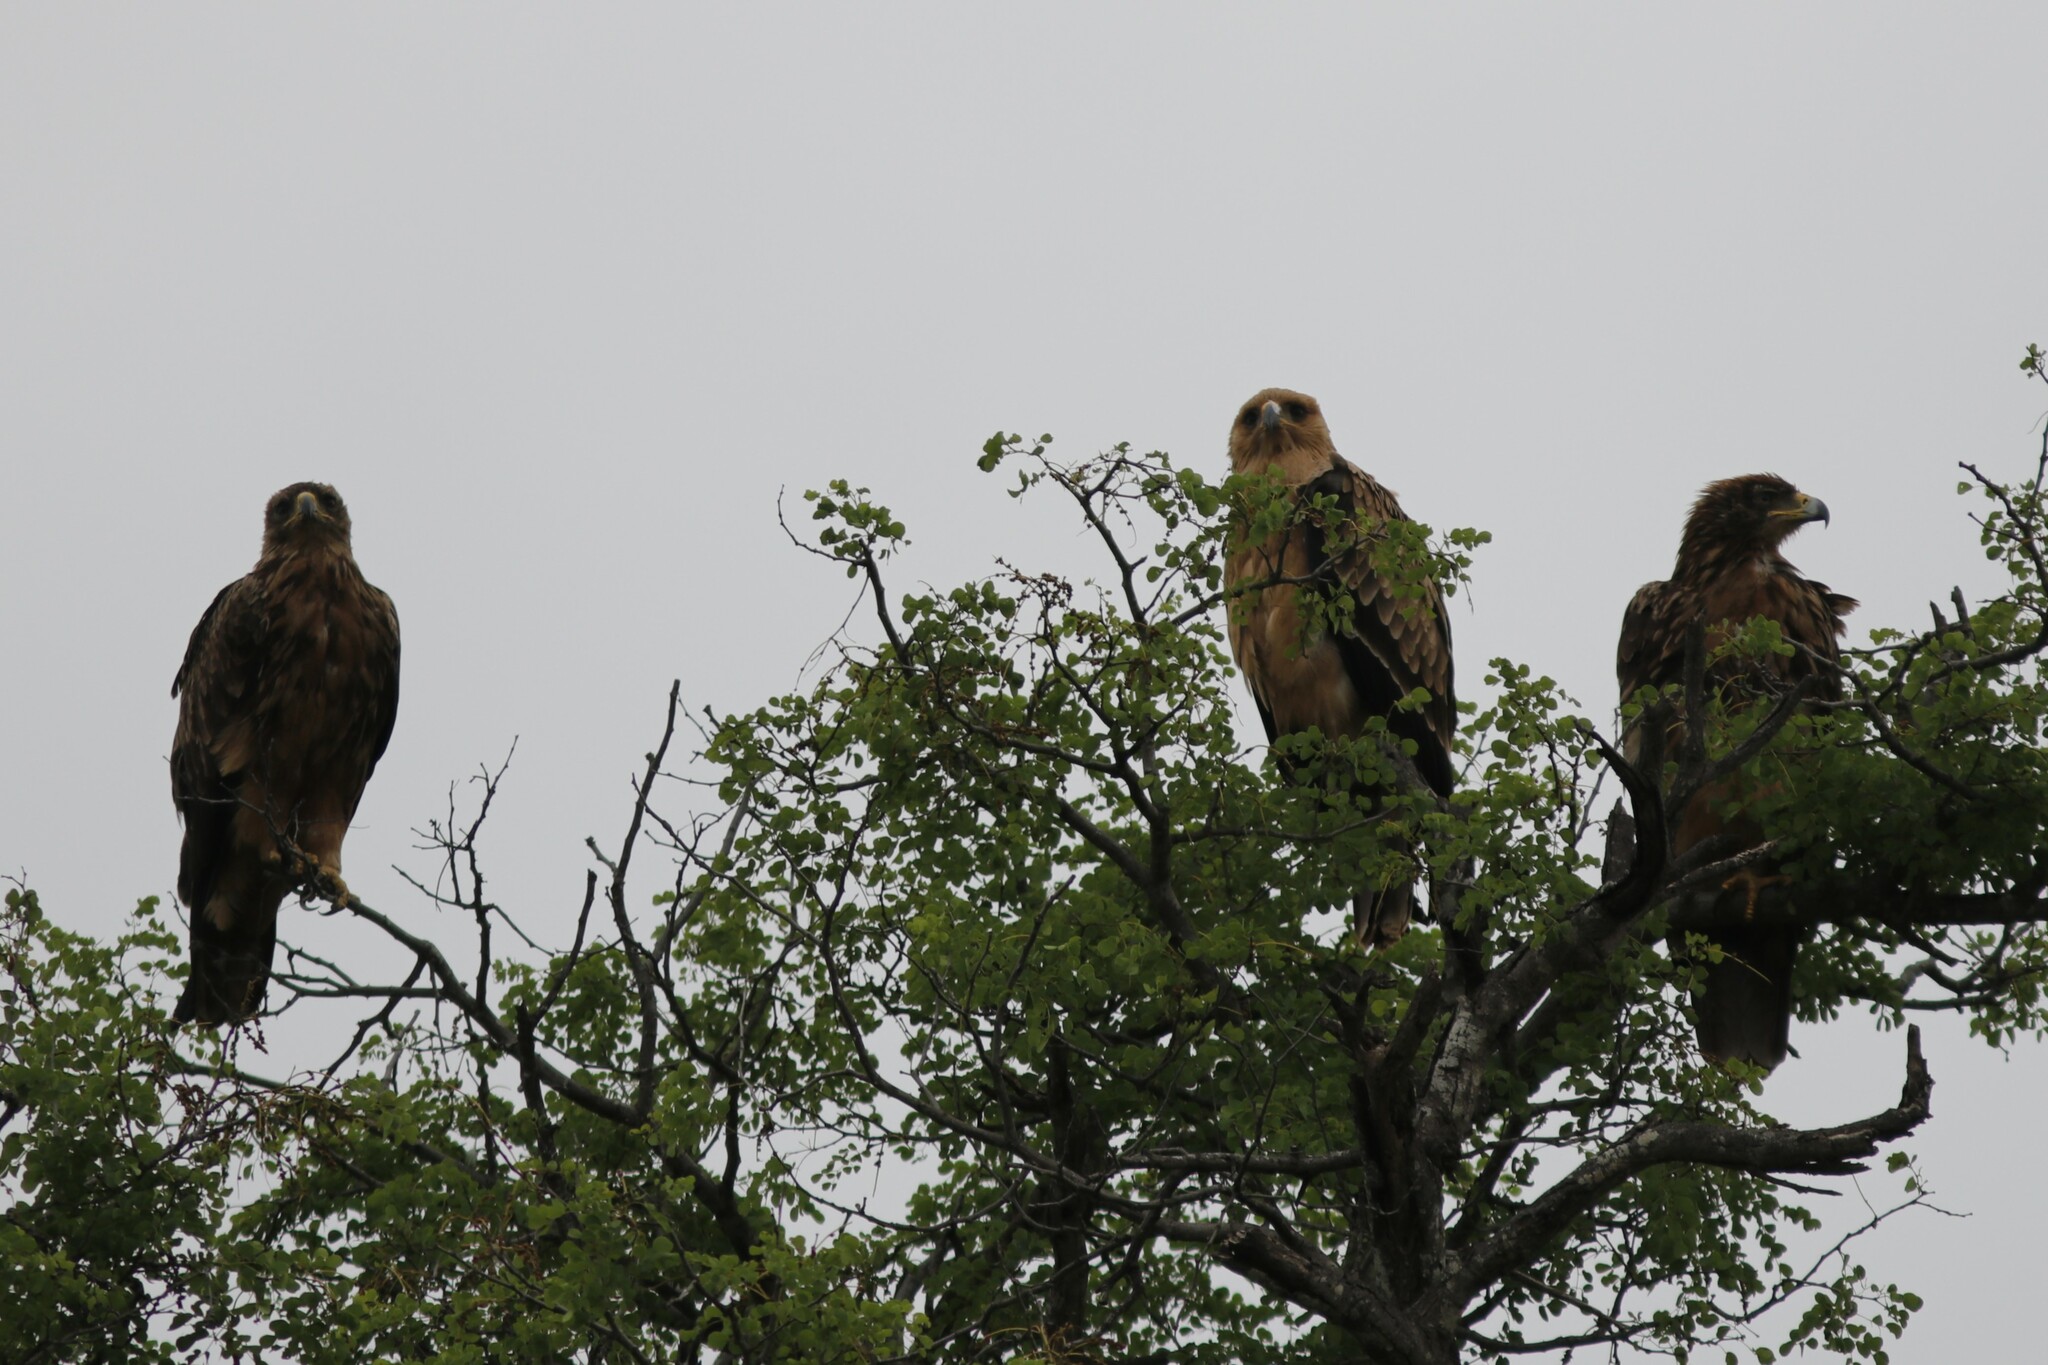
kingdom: Animalia
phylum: Chordata
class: Aves
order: Accipitriformes
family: Accipitridae
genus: Hieraaetus
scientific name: Hieraaetus wahlbergi
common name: Wahlberg's eagle
